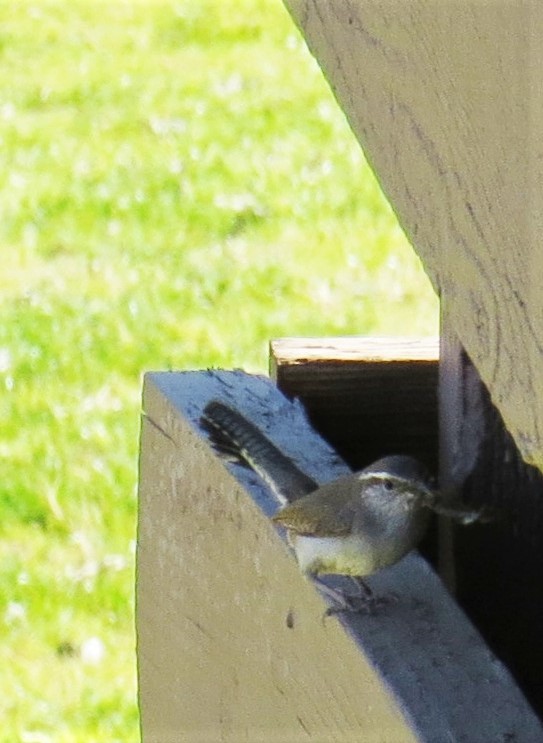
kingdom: Animalia
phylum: Chordata
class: Aves
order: Passeriformes
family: Troglodytidae
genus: Thryomanes
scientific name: Thryomanes bewickii
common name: Bewick's wren
